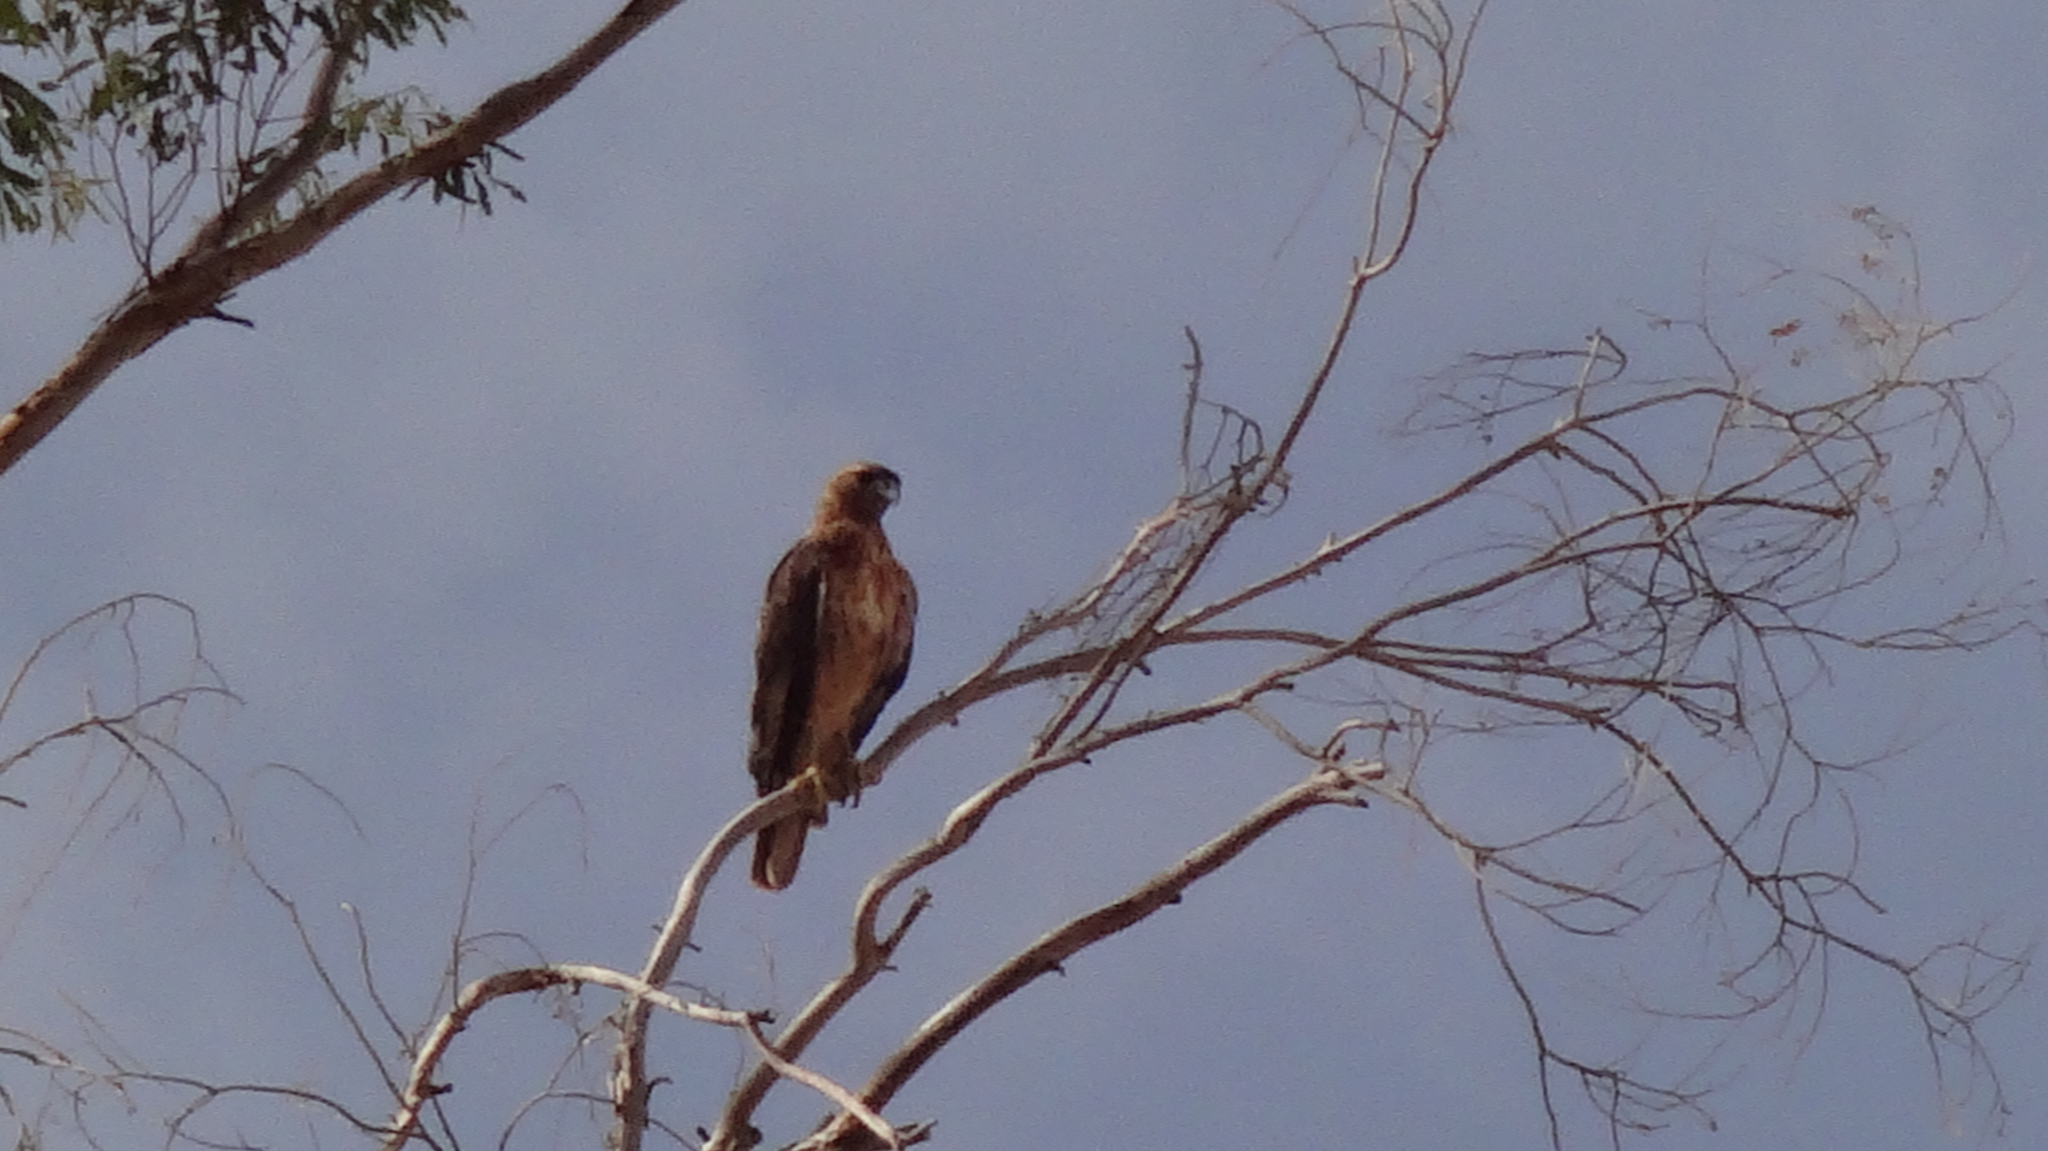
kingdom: Animalia
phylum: Chordata
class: Aves
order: Accipitriformes
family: Accipitridae
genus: Buteo
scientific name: Buteo jamaicensis
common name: Red-tailed hawk
